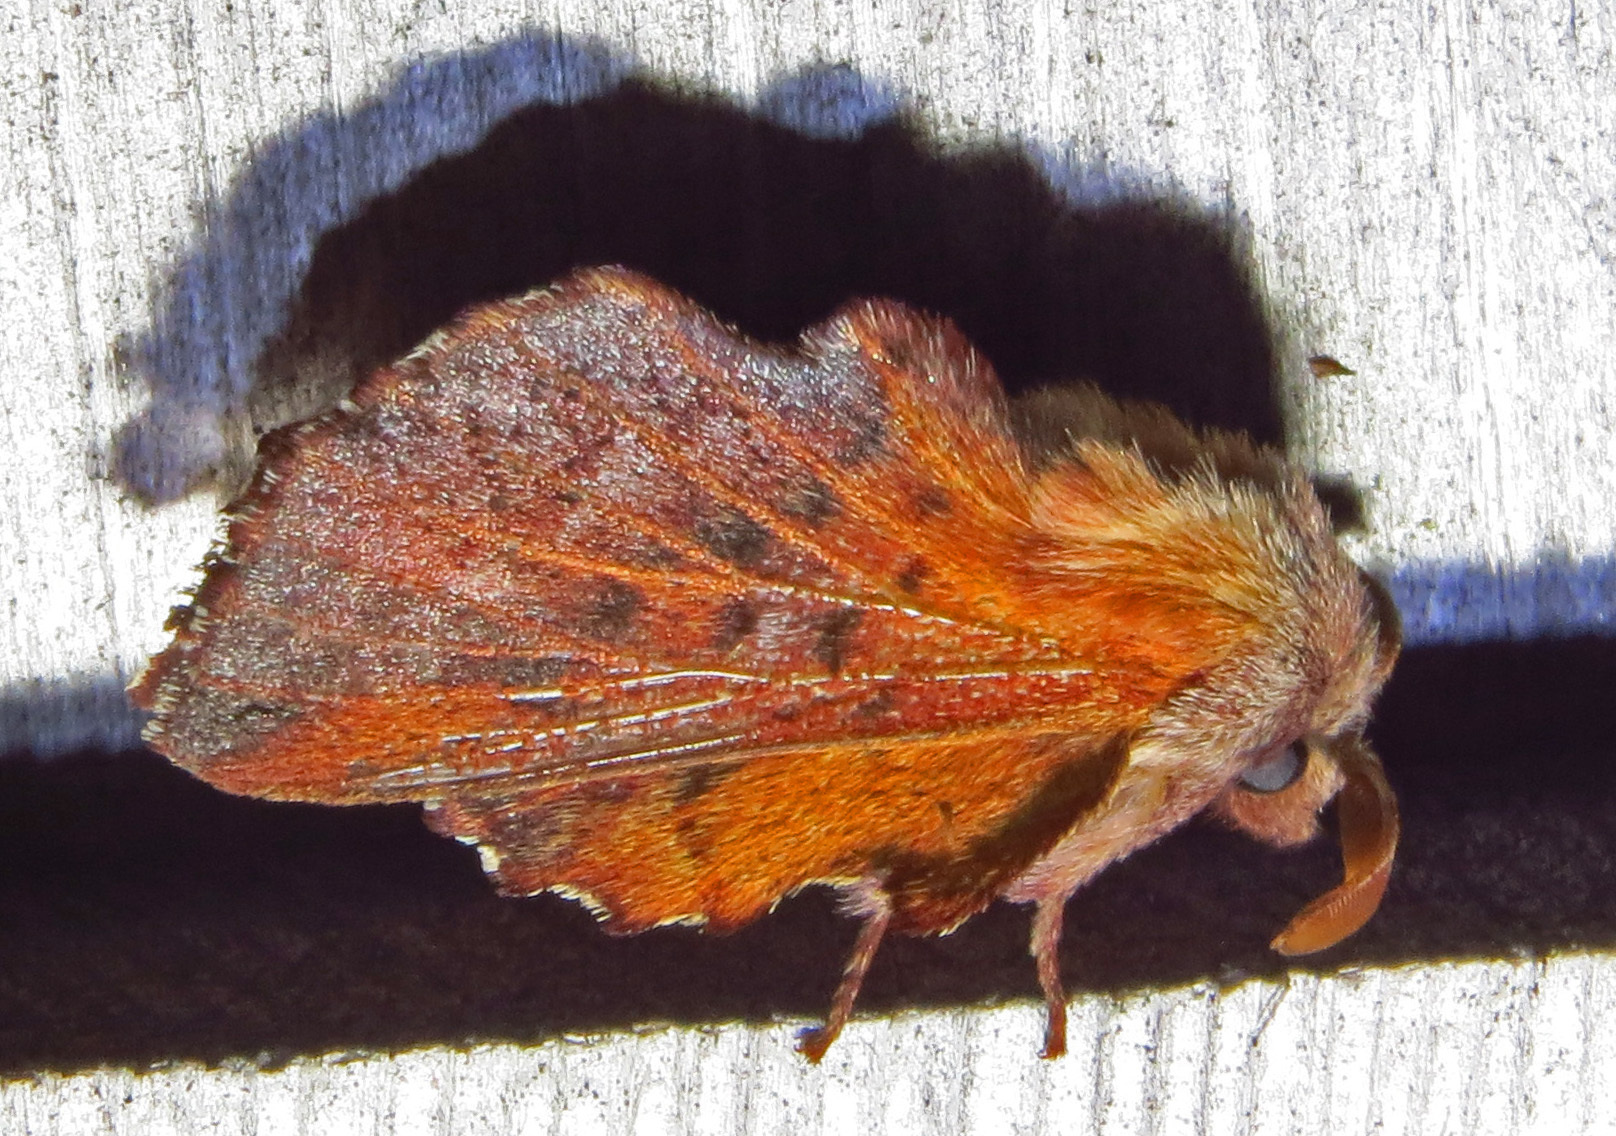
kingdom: Animalia
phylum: Arthropoda
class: Insecta
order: Lepidoptera
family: Lasiocampidae
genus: Phyllodesma
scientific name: Phyllodesma americana
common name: American lappet moth
